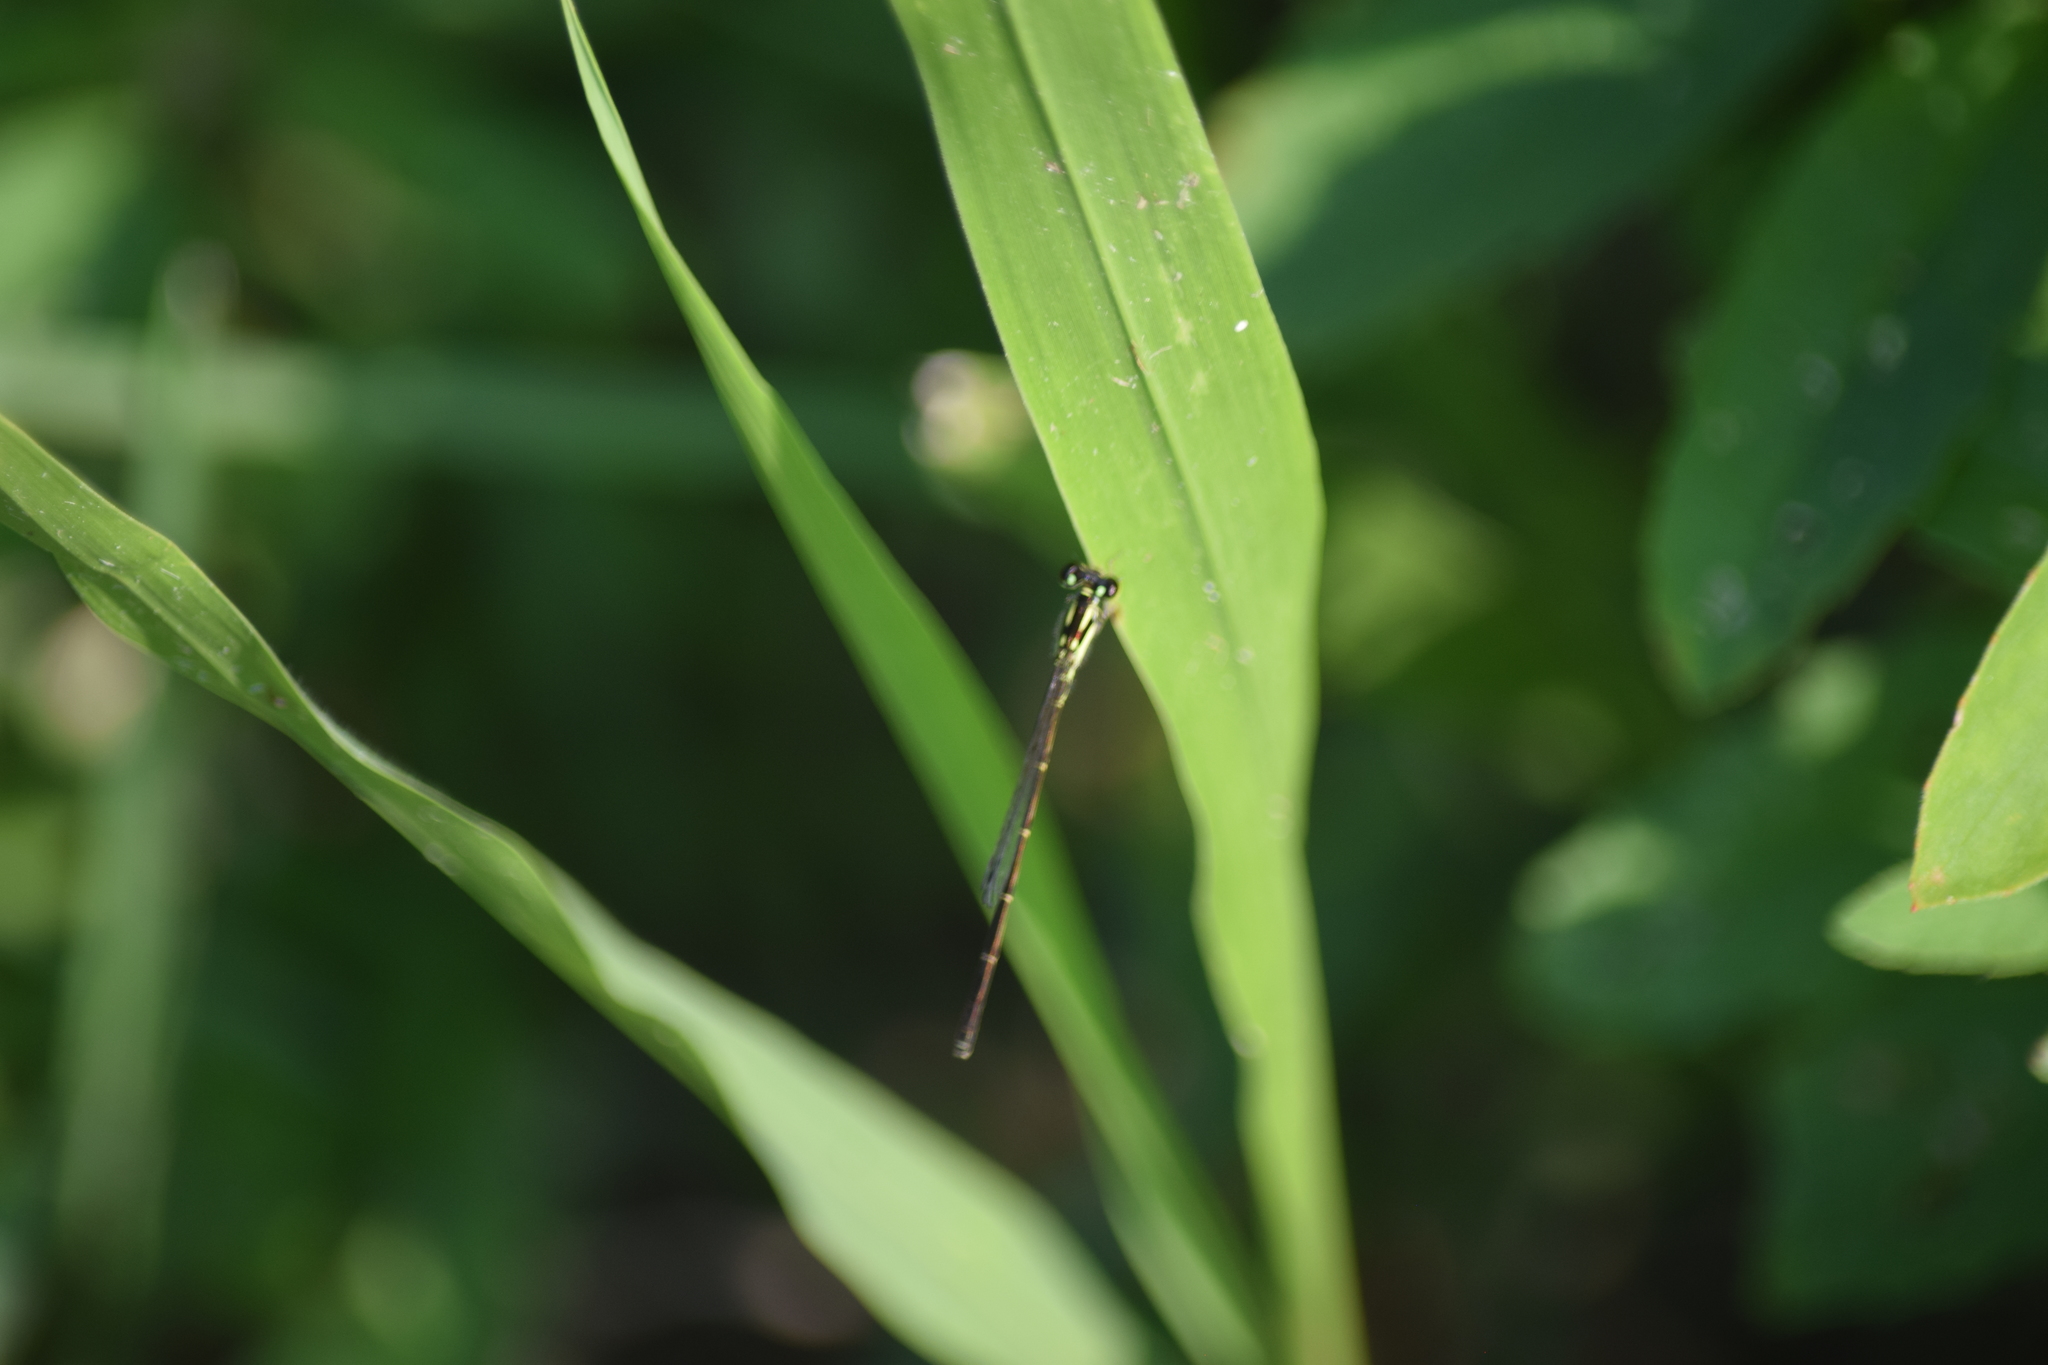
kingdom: Animalia
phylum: Arthropoda
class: Insecta
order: Odonata
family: Coenagrionidae
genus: Ischnura
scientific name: Ischnura posita
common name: Fragile forktail
